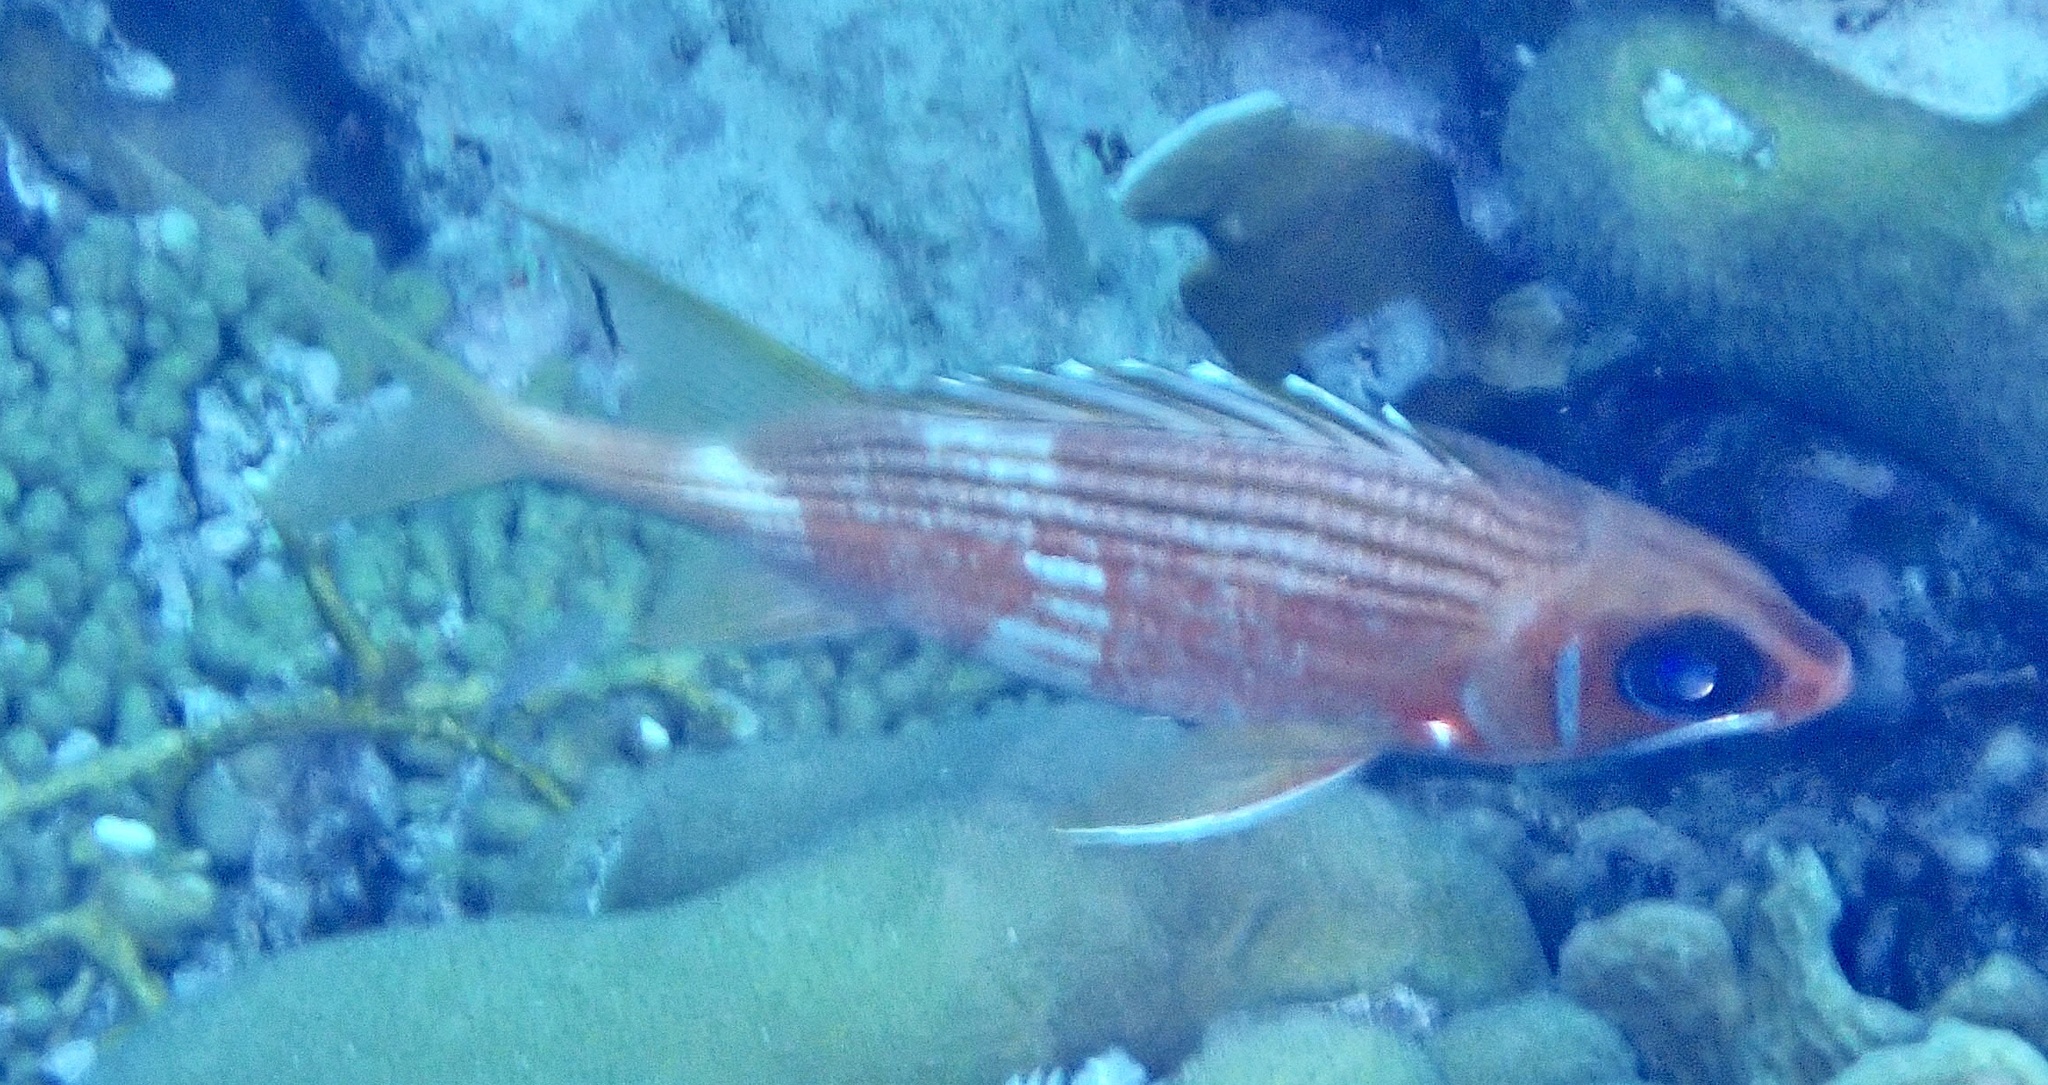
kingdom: Animalia
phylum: Chordata
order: Beryciformes
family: Holocentridae
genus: Holocentrus
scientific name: Holocentrus rufus
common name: Longspine squirrelfish
